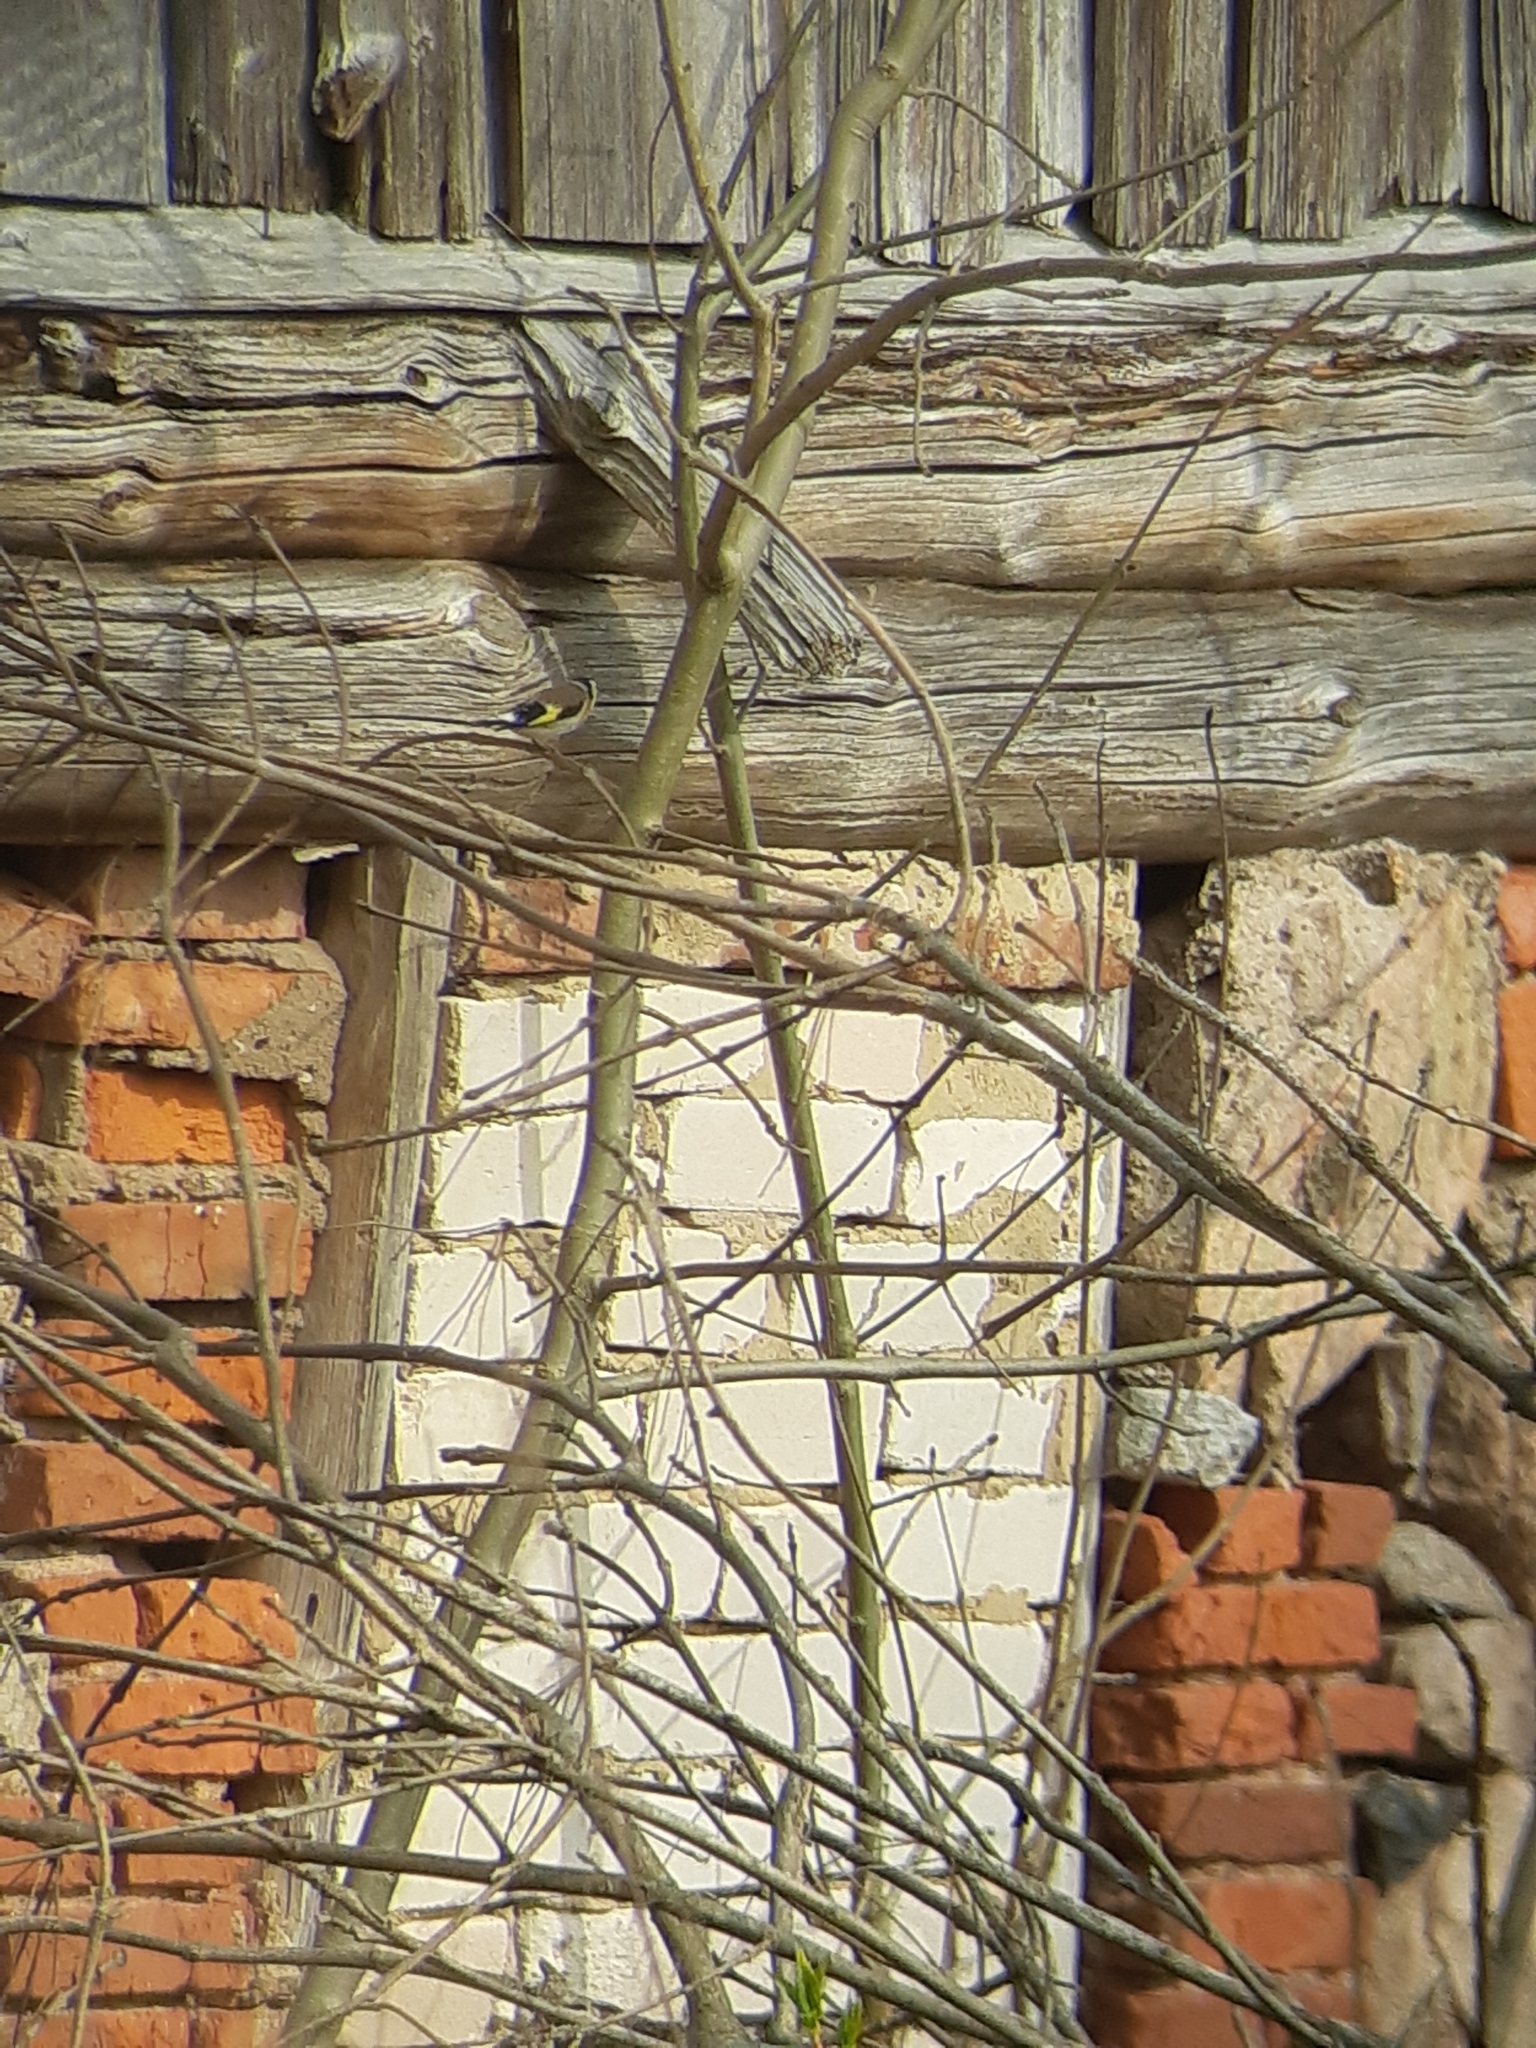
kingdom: Animalia
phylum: Chordata
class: Aves
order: Passeriformes
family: Fringillidae
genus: Carduelis
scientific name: Carduelis carduelis
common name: European goldfinch
